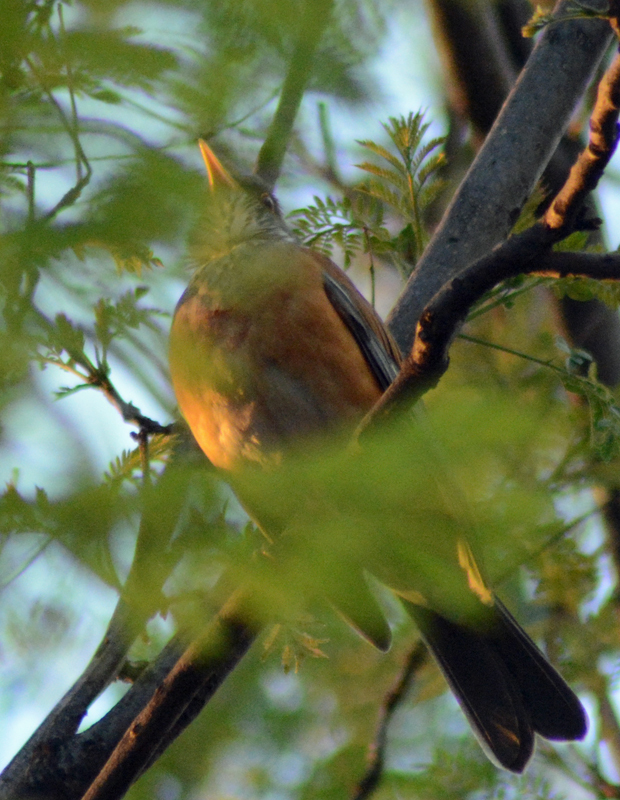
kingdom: Animalia
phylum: Chordata
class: Aves
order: Passeriformes
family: Turdidae
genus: Turdus
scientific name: Turdus rufopalliatus
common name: Rufous-backed robin
